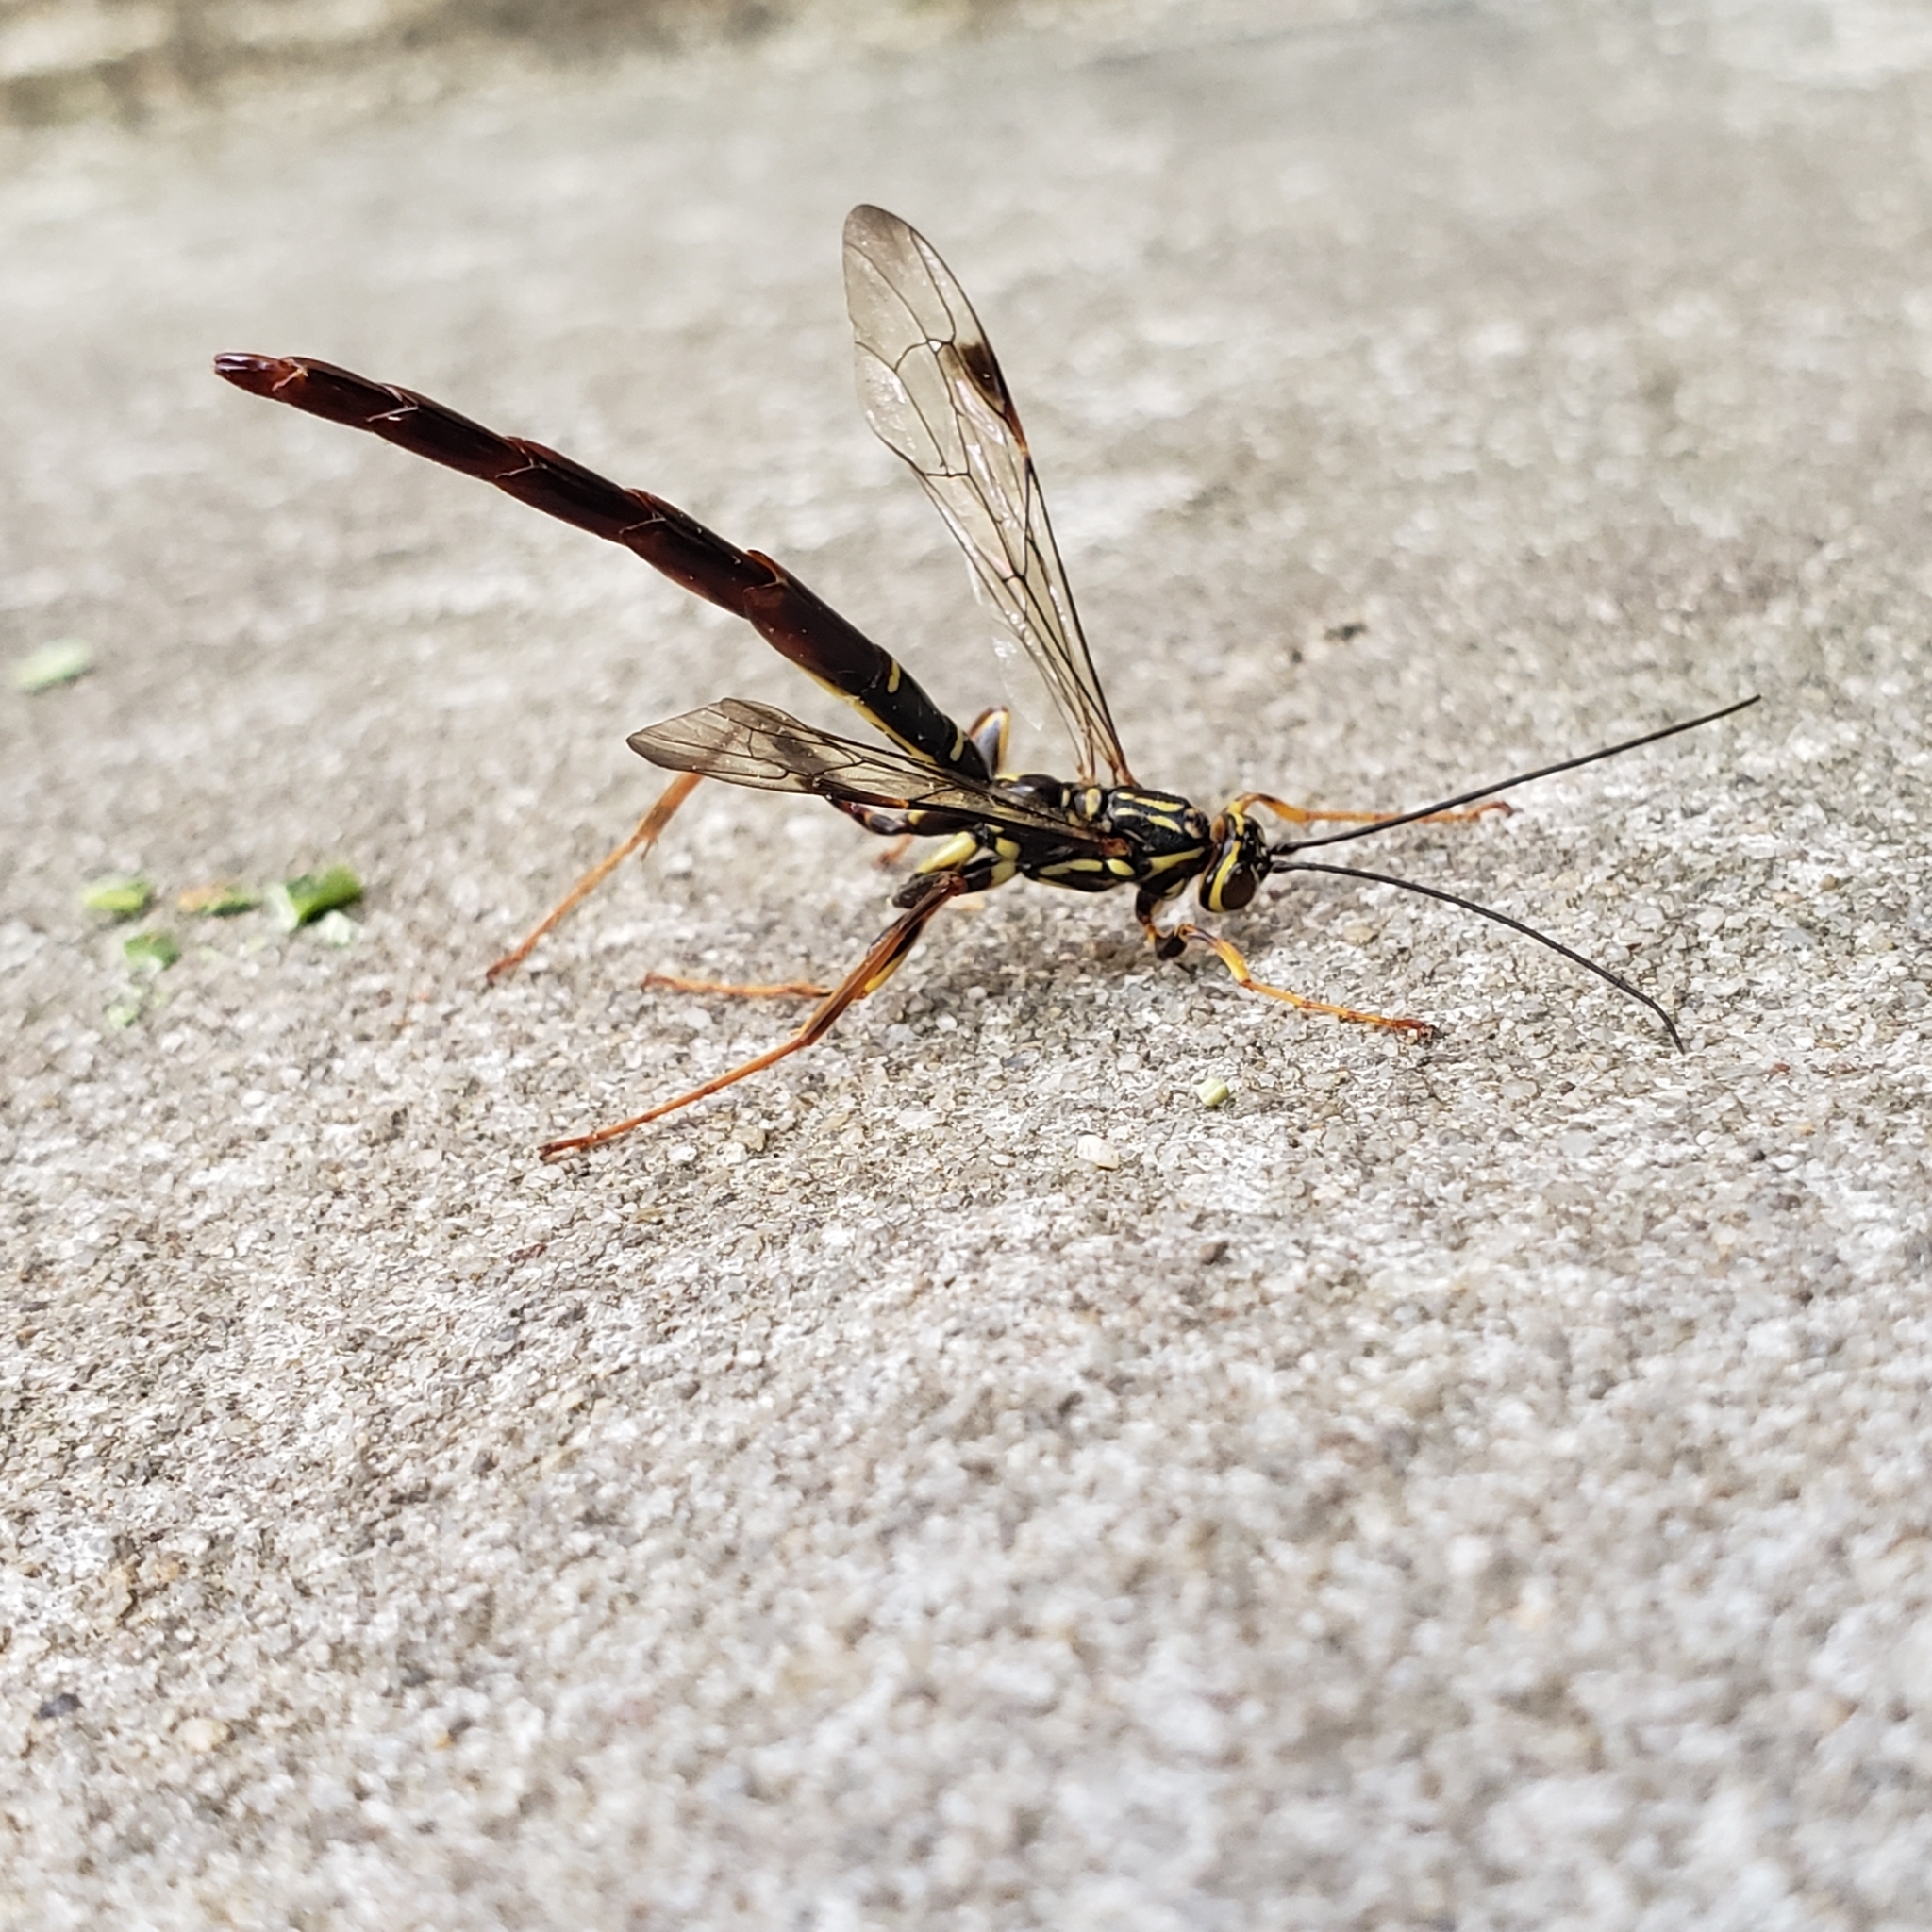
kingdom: Animalia
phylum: Arthropoda
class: Insecta
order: Hymenoptera
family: Ichneumonidae
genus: Megarhyssa
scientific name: Megarhyssa macrura
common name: Long-tailed giant ichneumonid wasp
